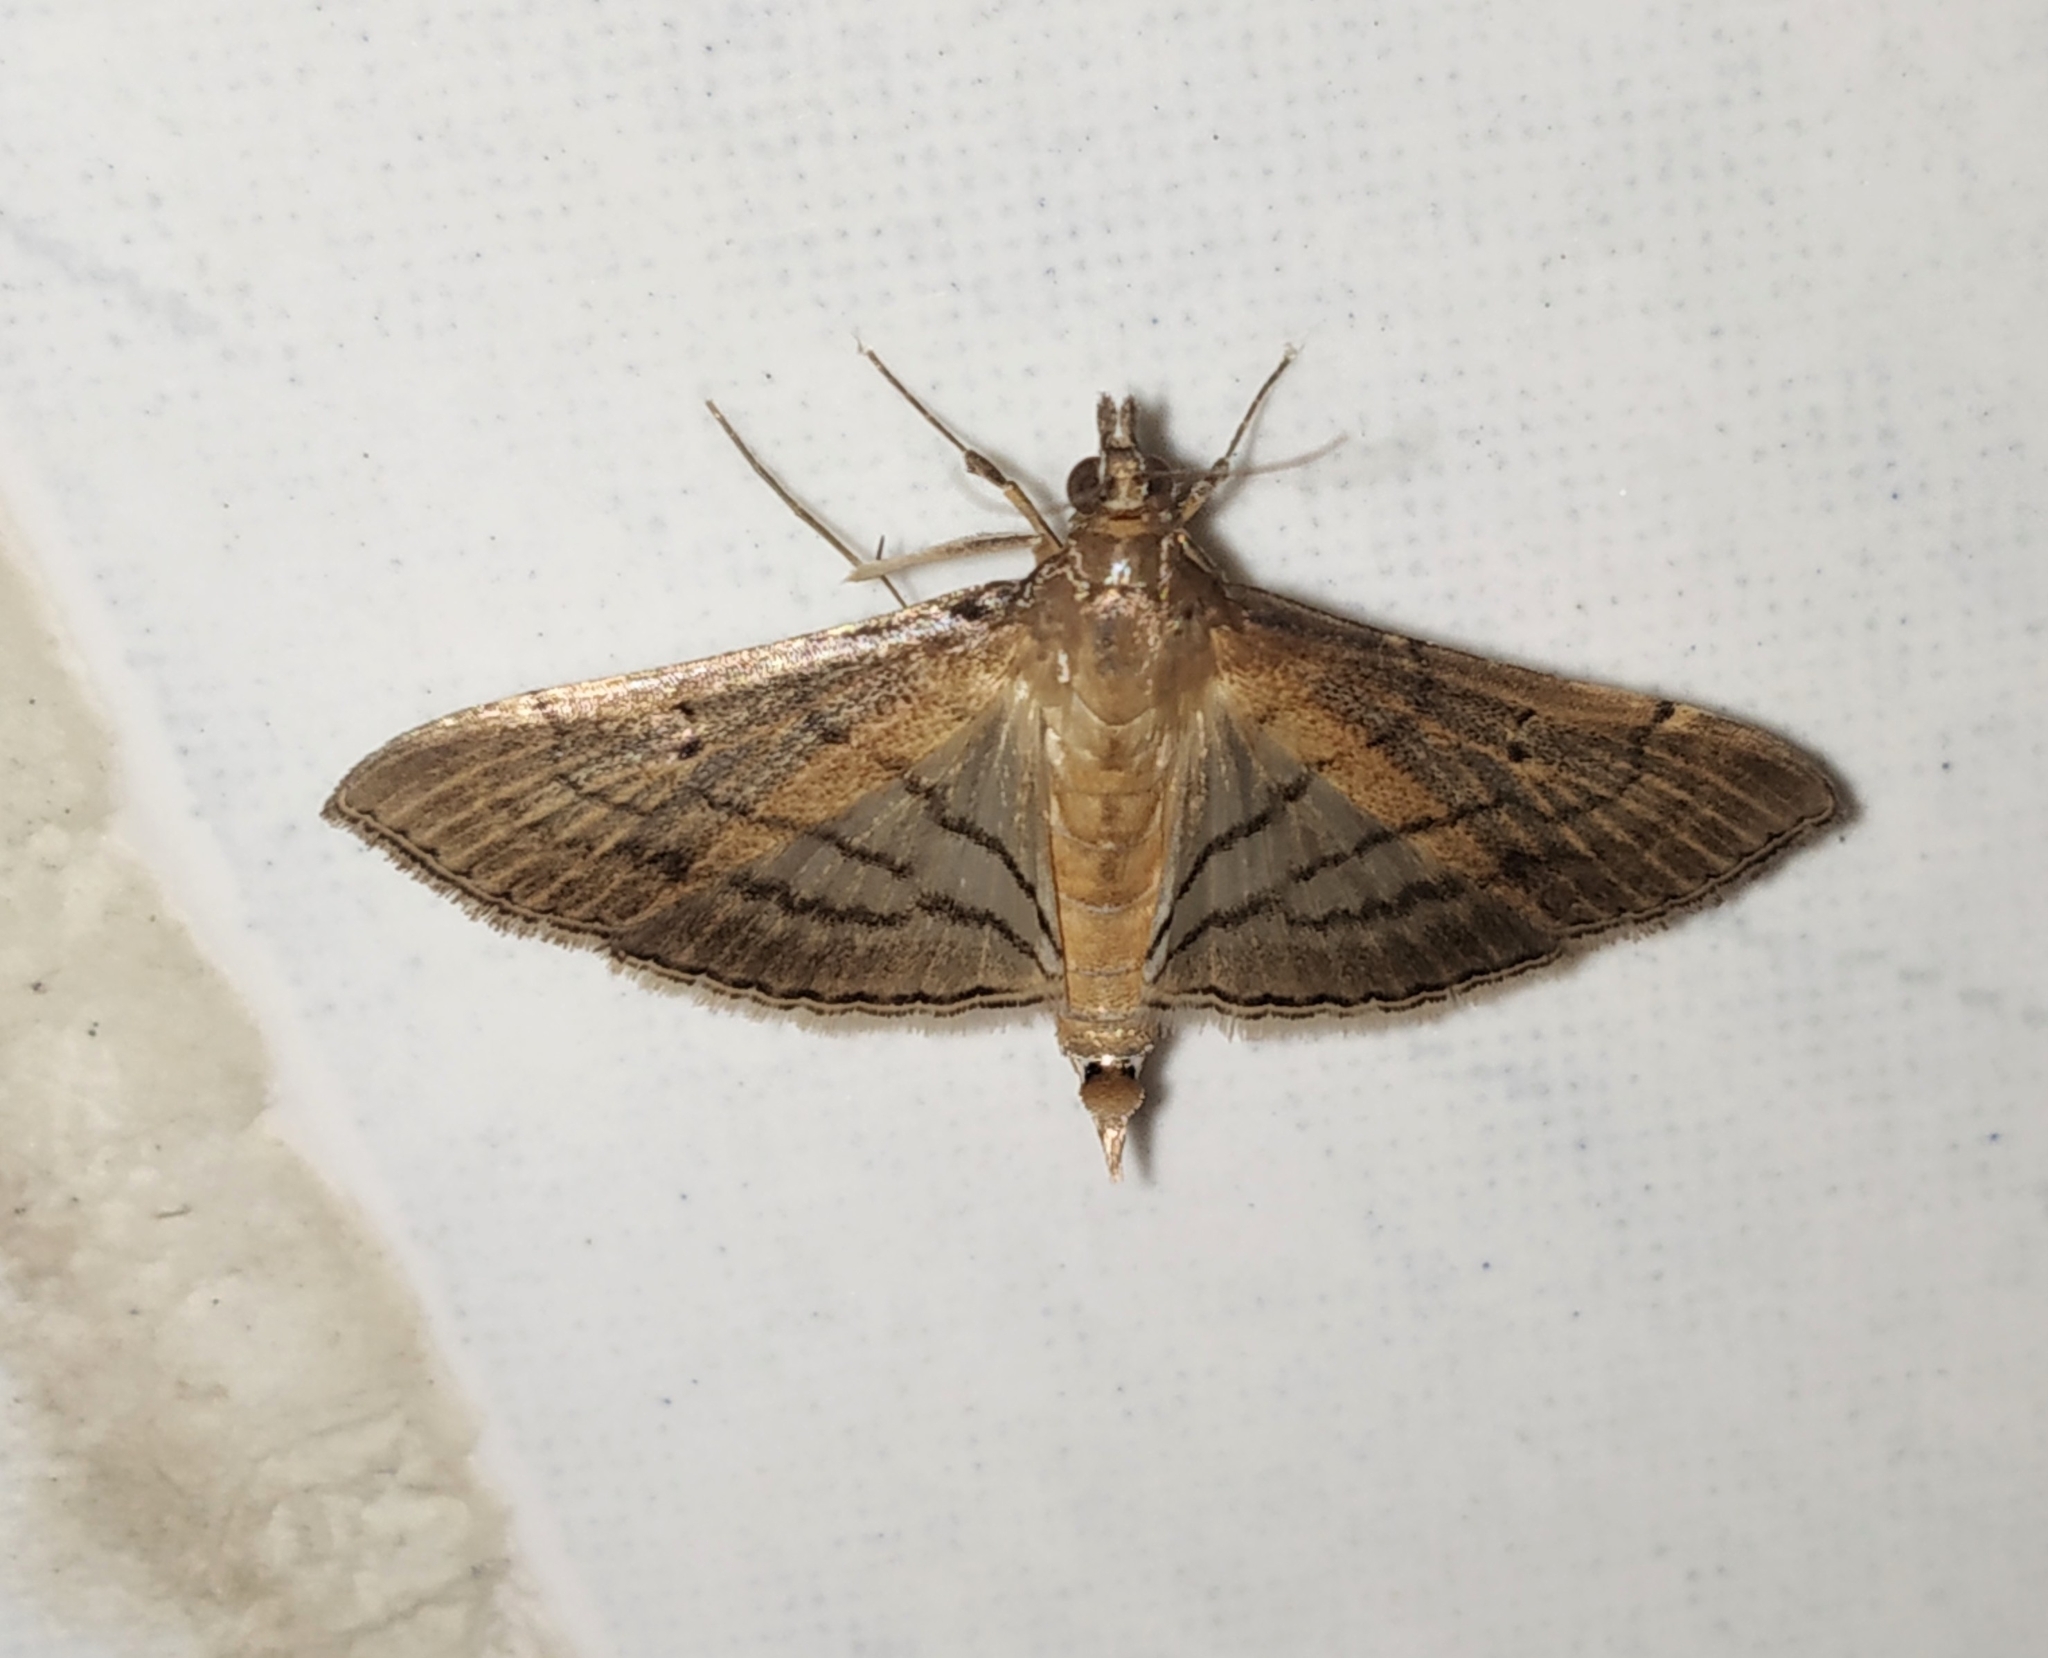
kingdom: Animalia
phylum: Arthropoda
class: Insecta
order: Lepidoptera
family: Crambidae
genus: Cnaphalocrocis
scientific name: Cnaphalocrocis Marasmia trapezalis
